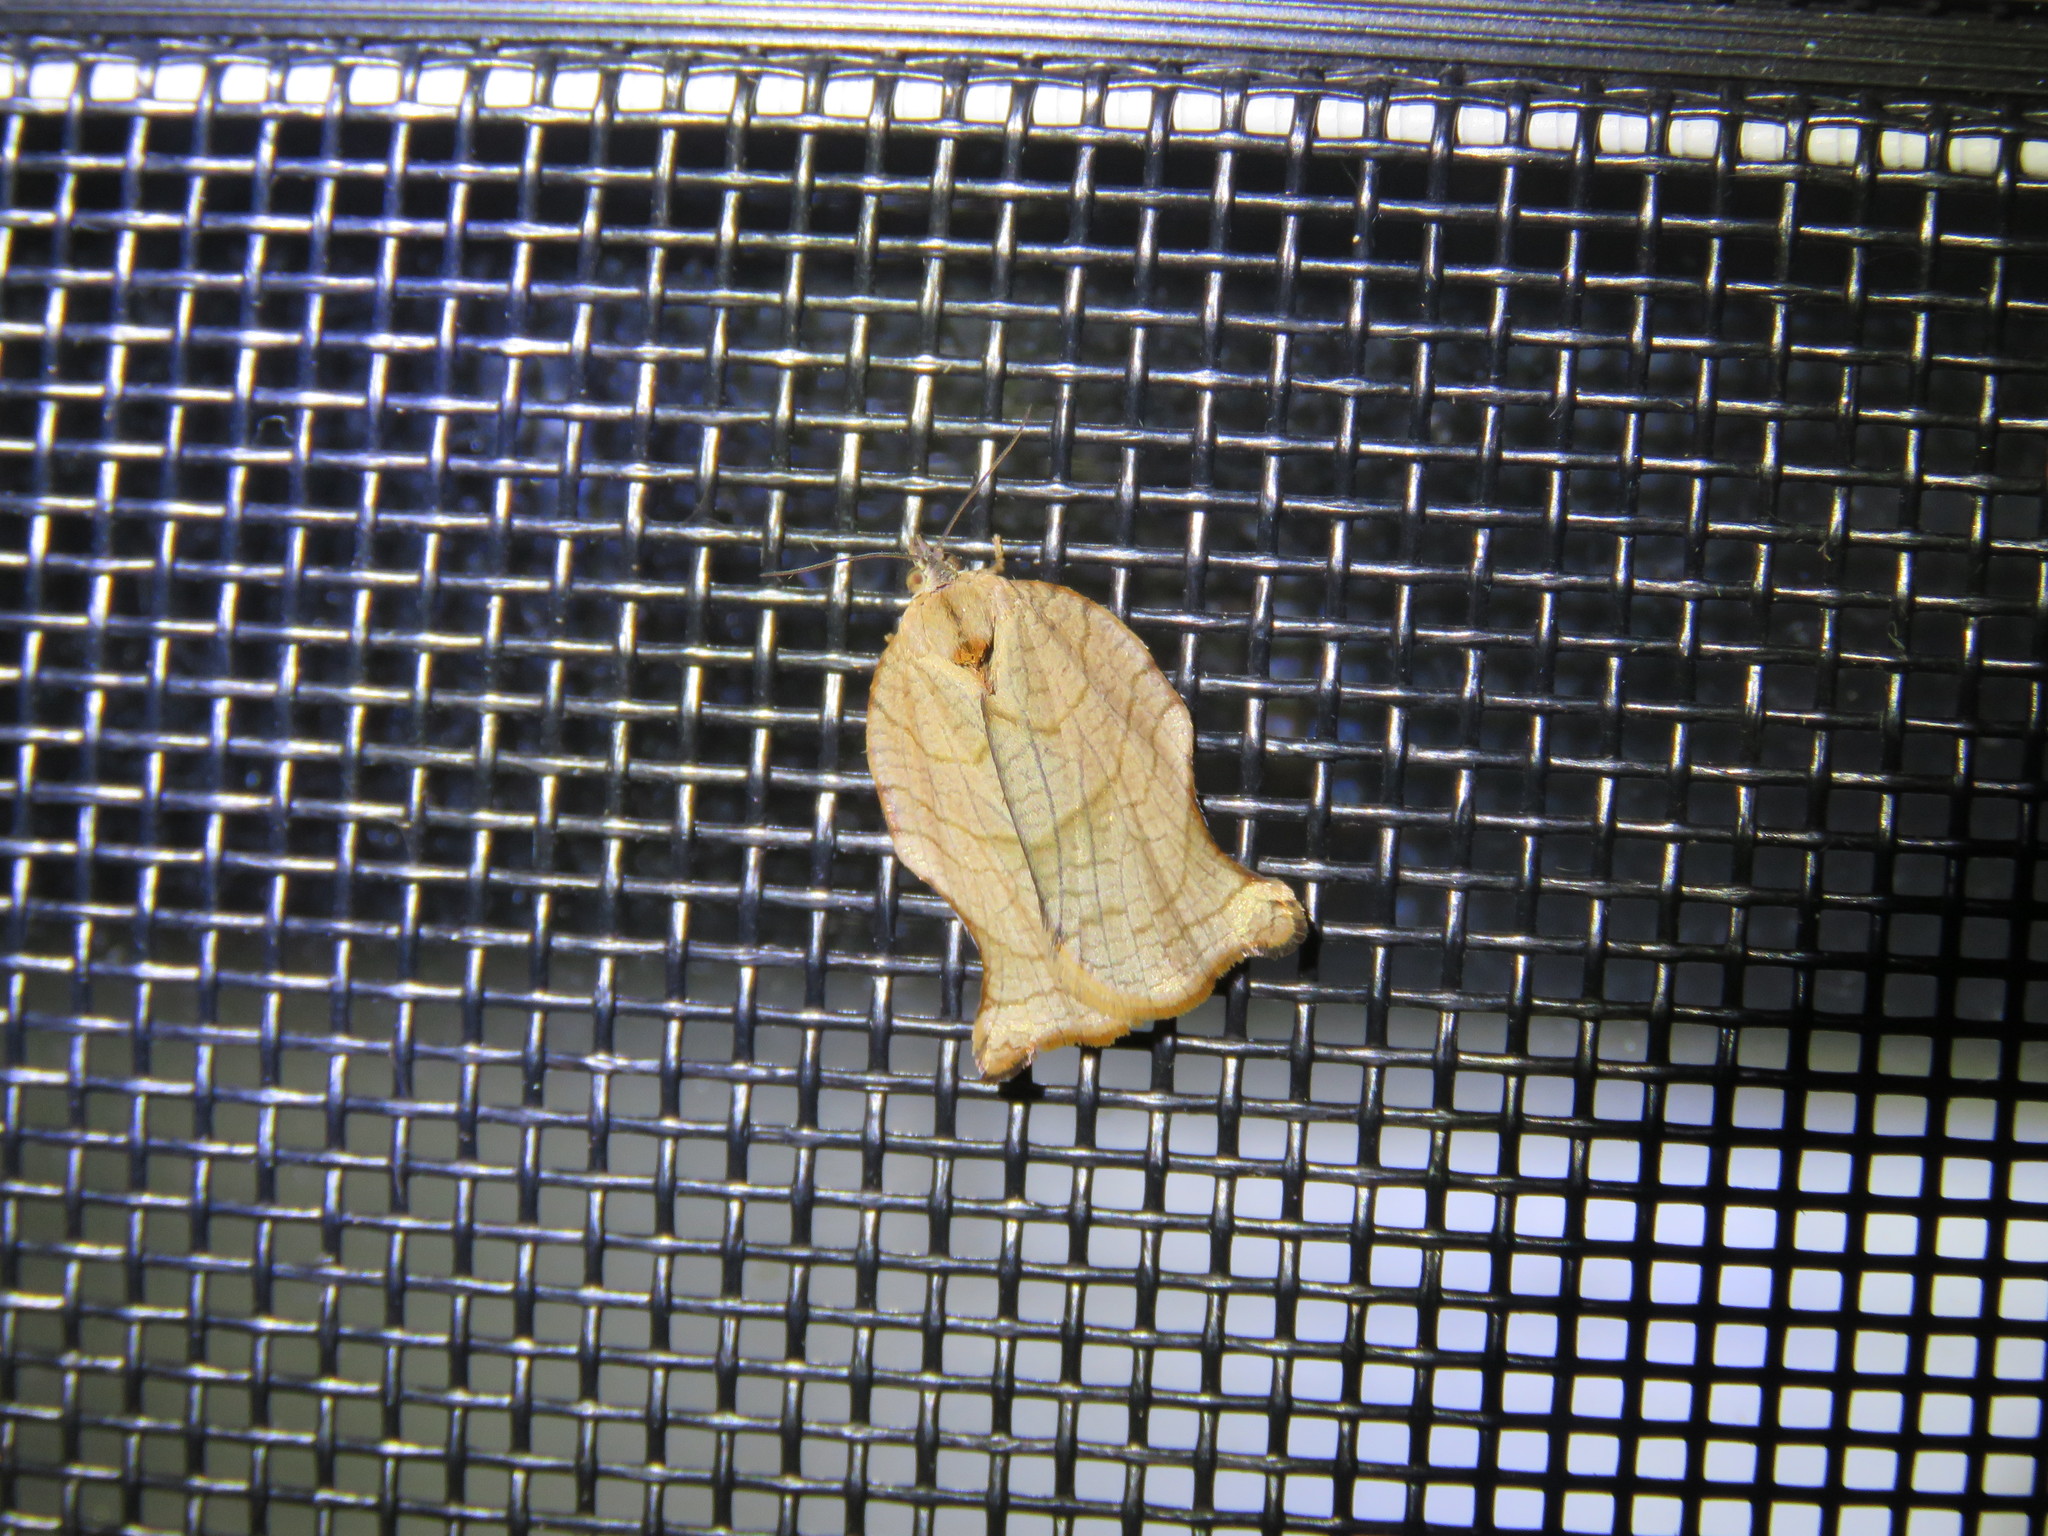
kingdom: Animalia
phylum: Arthropoda
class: Insecta
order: Lepidoptera
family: Tortricidae
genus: Archips
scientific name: Archips purpurana
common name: Omnivorous leafroller
